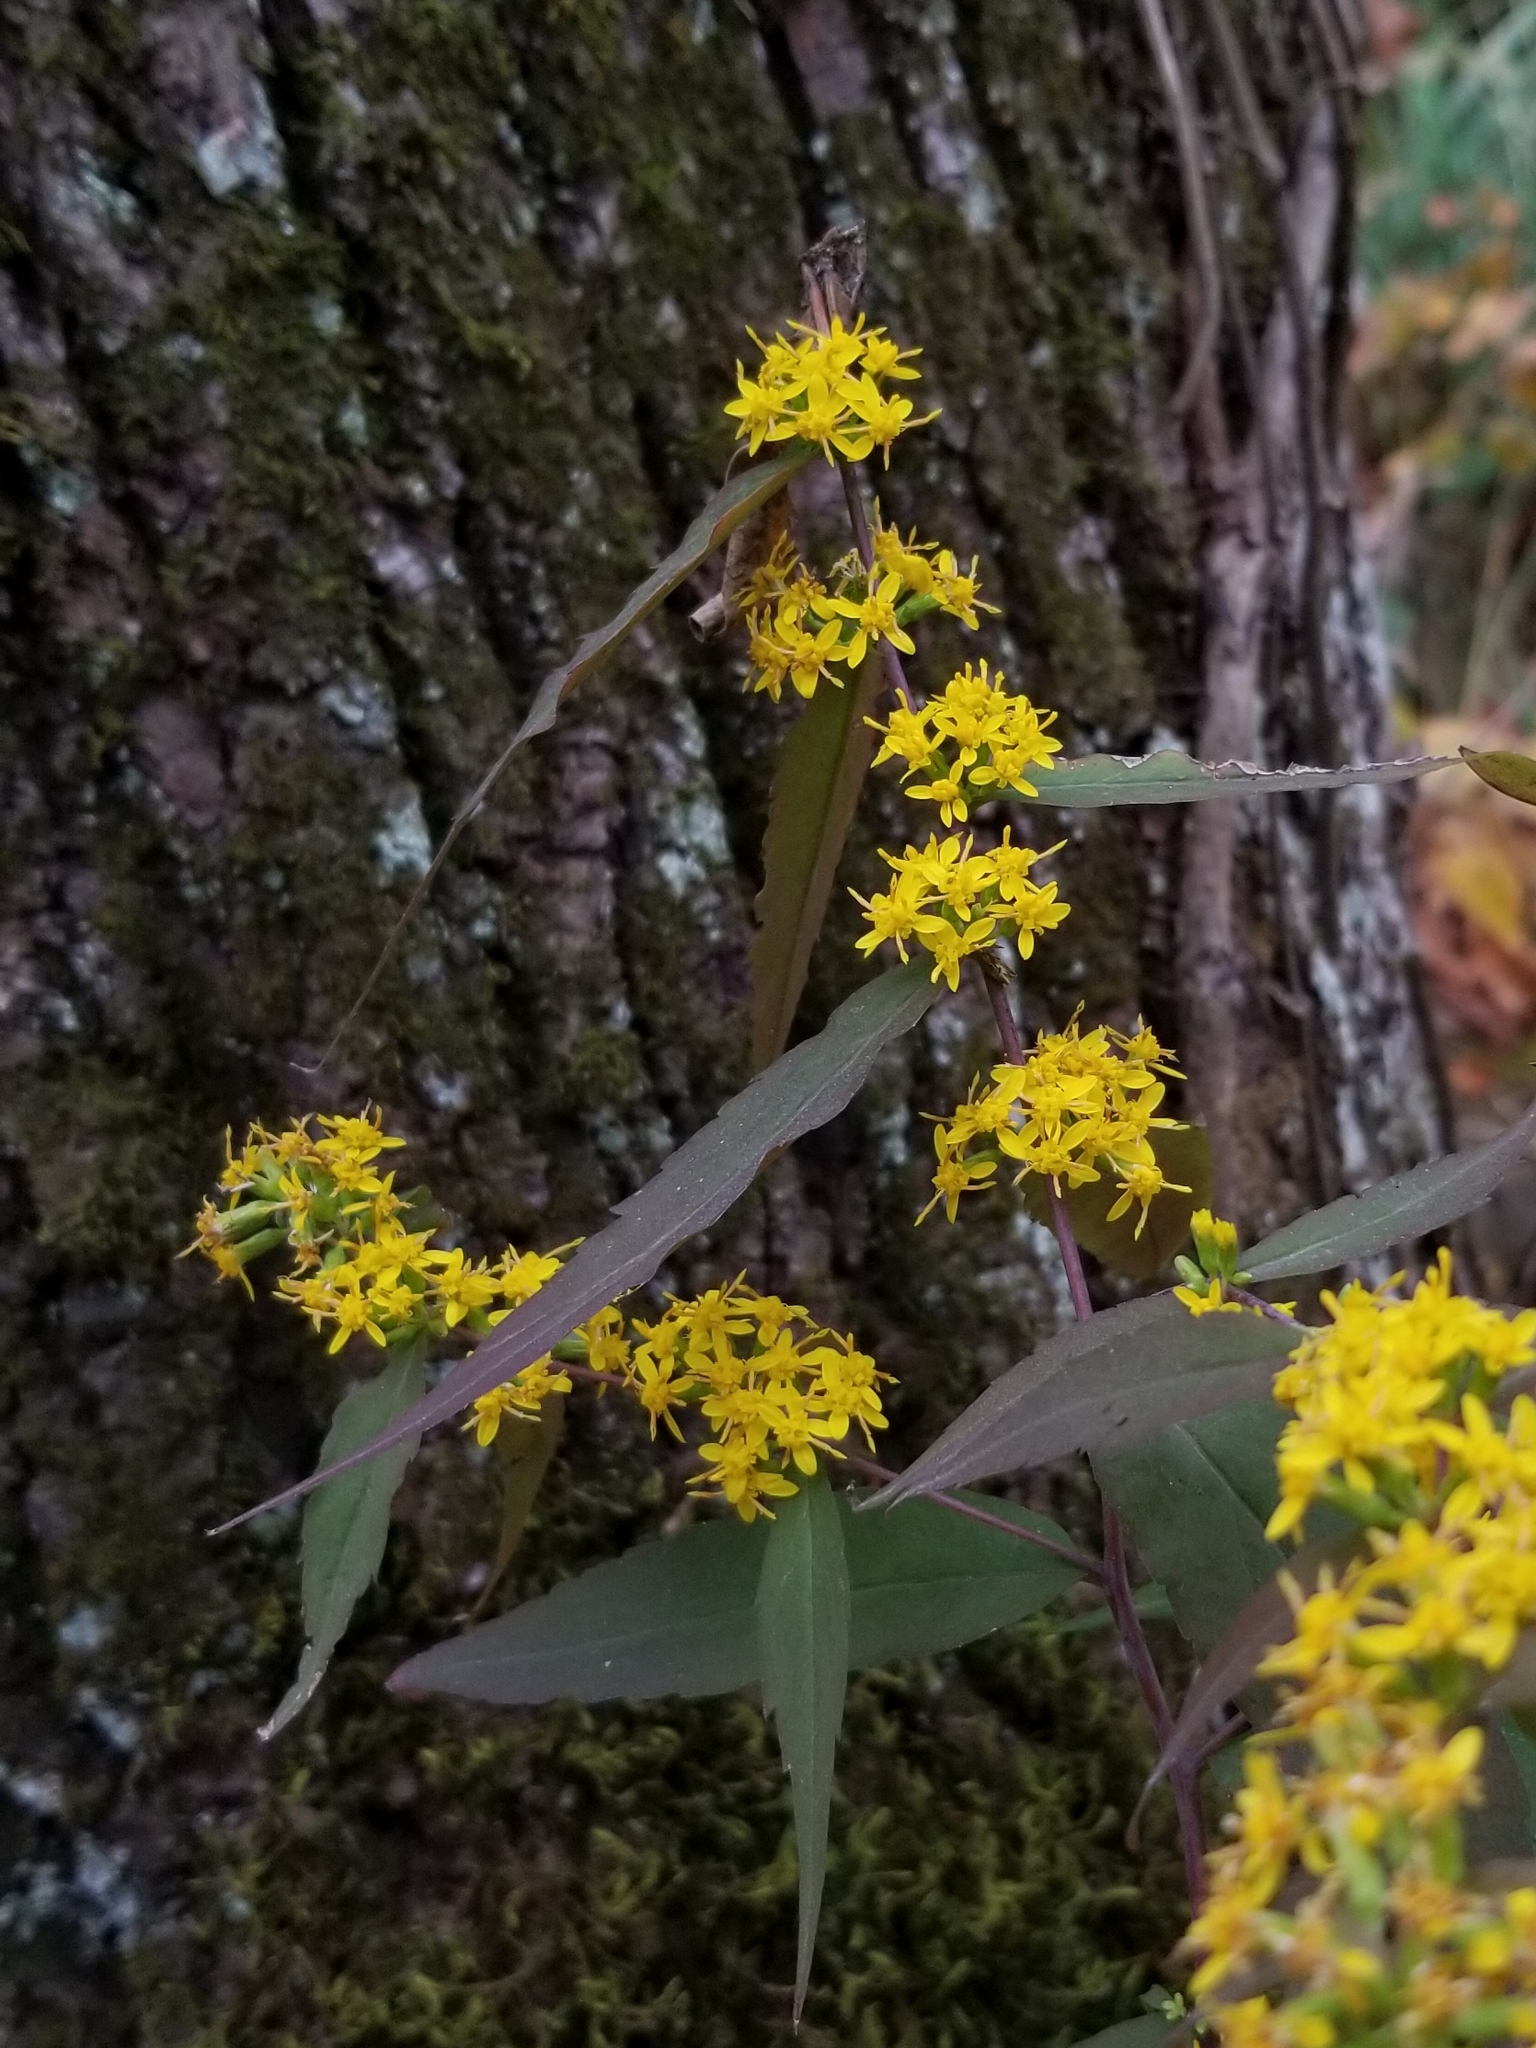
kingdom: Plantae
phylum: Tracheophyta
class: Magnoliopsida
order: Asterales
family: Asteraceae
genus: Solidago
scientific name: Solidago caesia
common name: Woodland goldenrod
